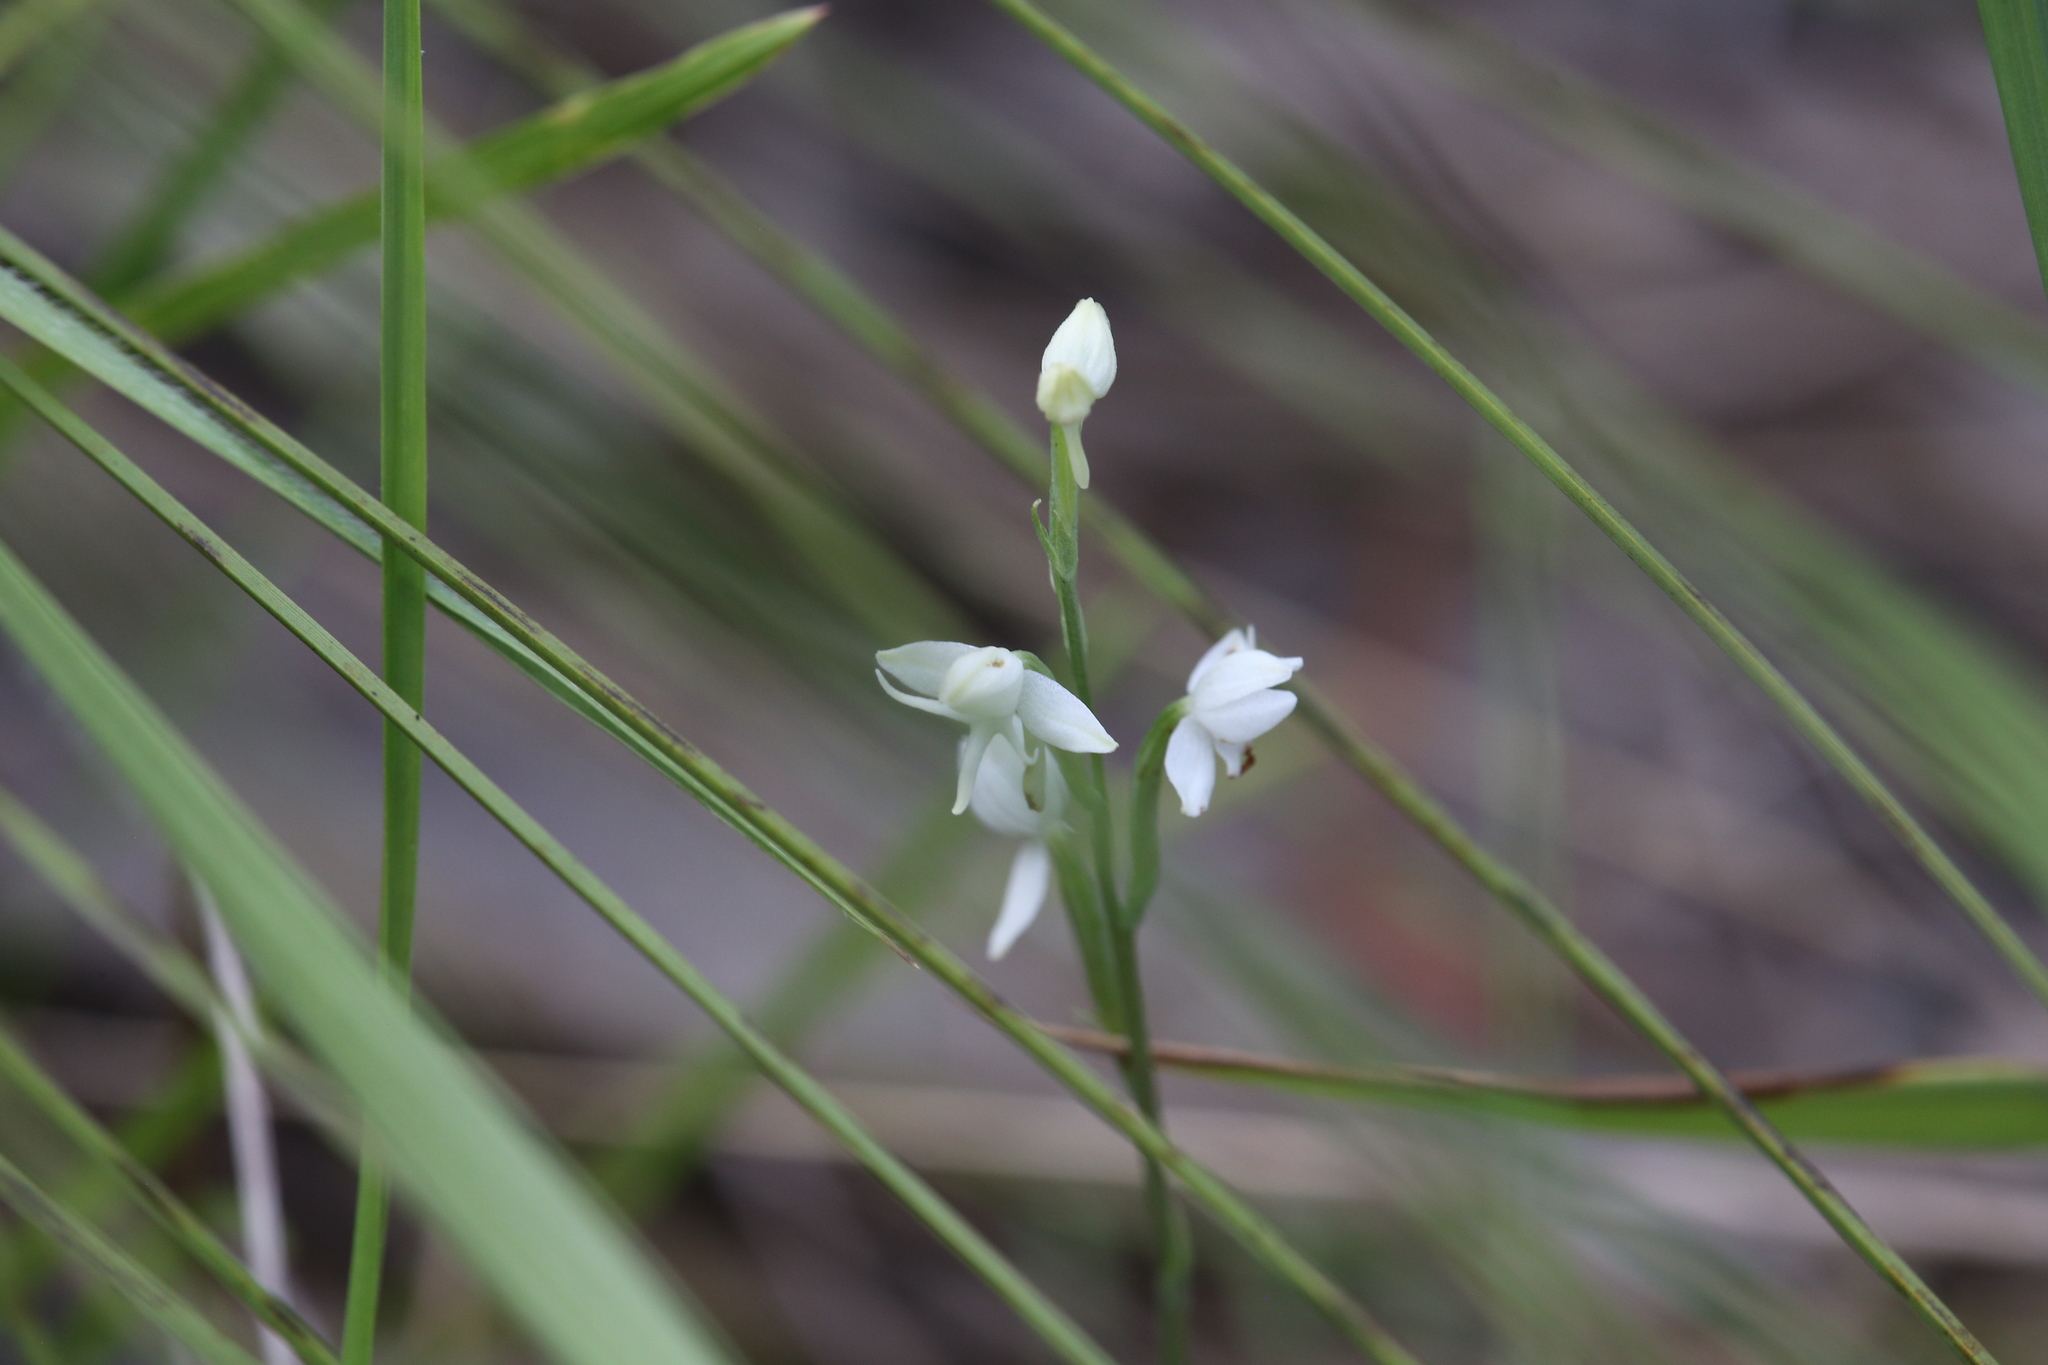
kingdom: Plantae
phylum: Tracheophyta
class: Liliopsida
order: Asparagales
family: Orchidaceae
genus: Habenaria
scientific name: Habenaria propinquior
